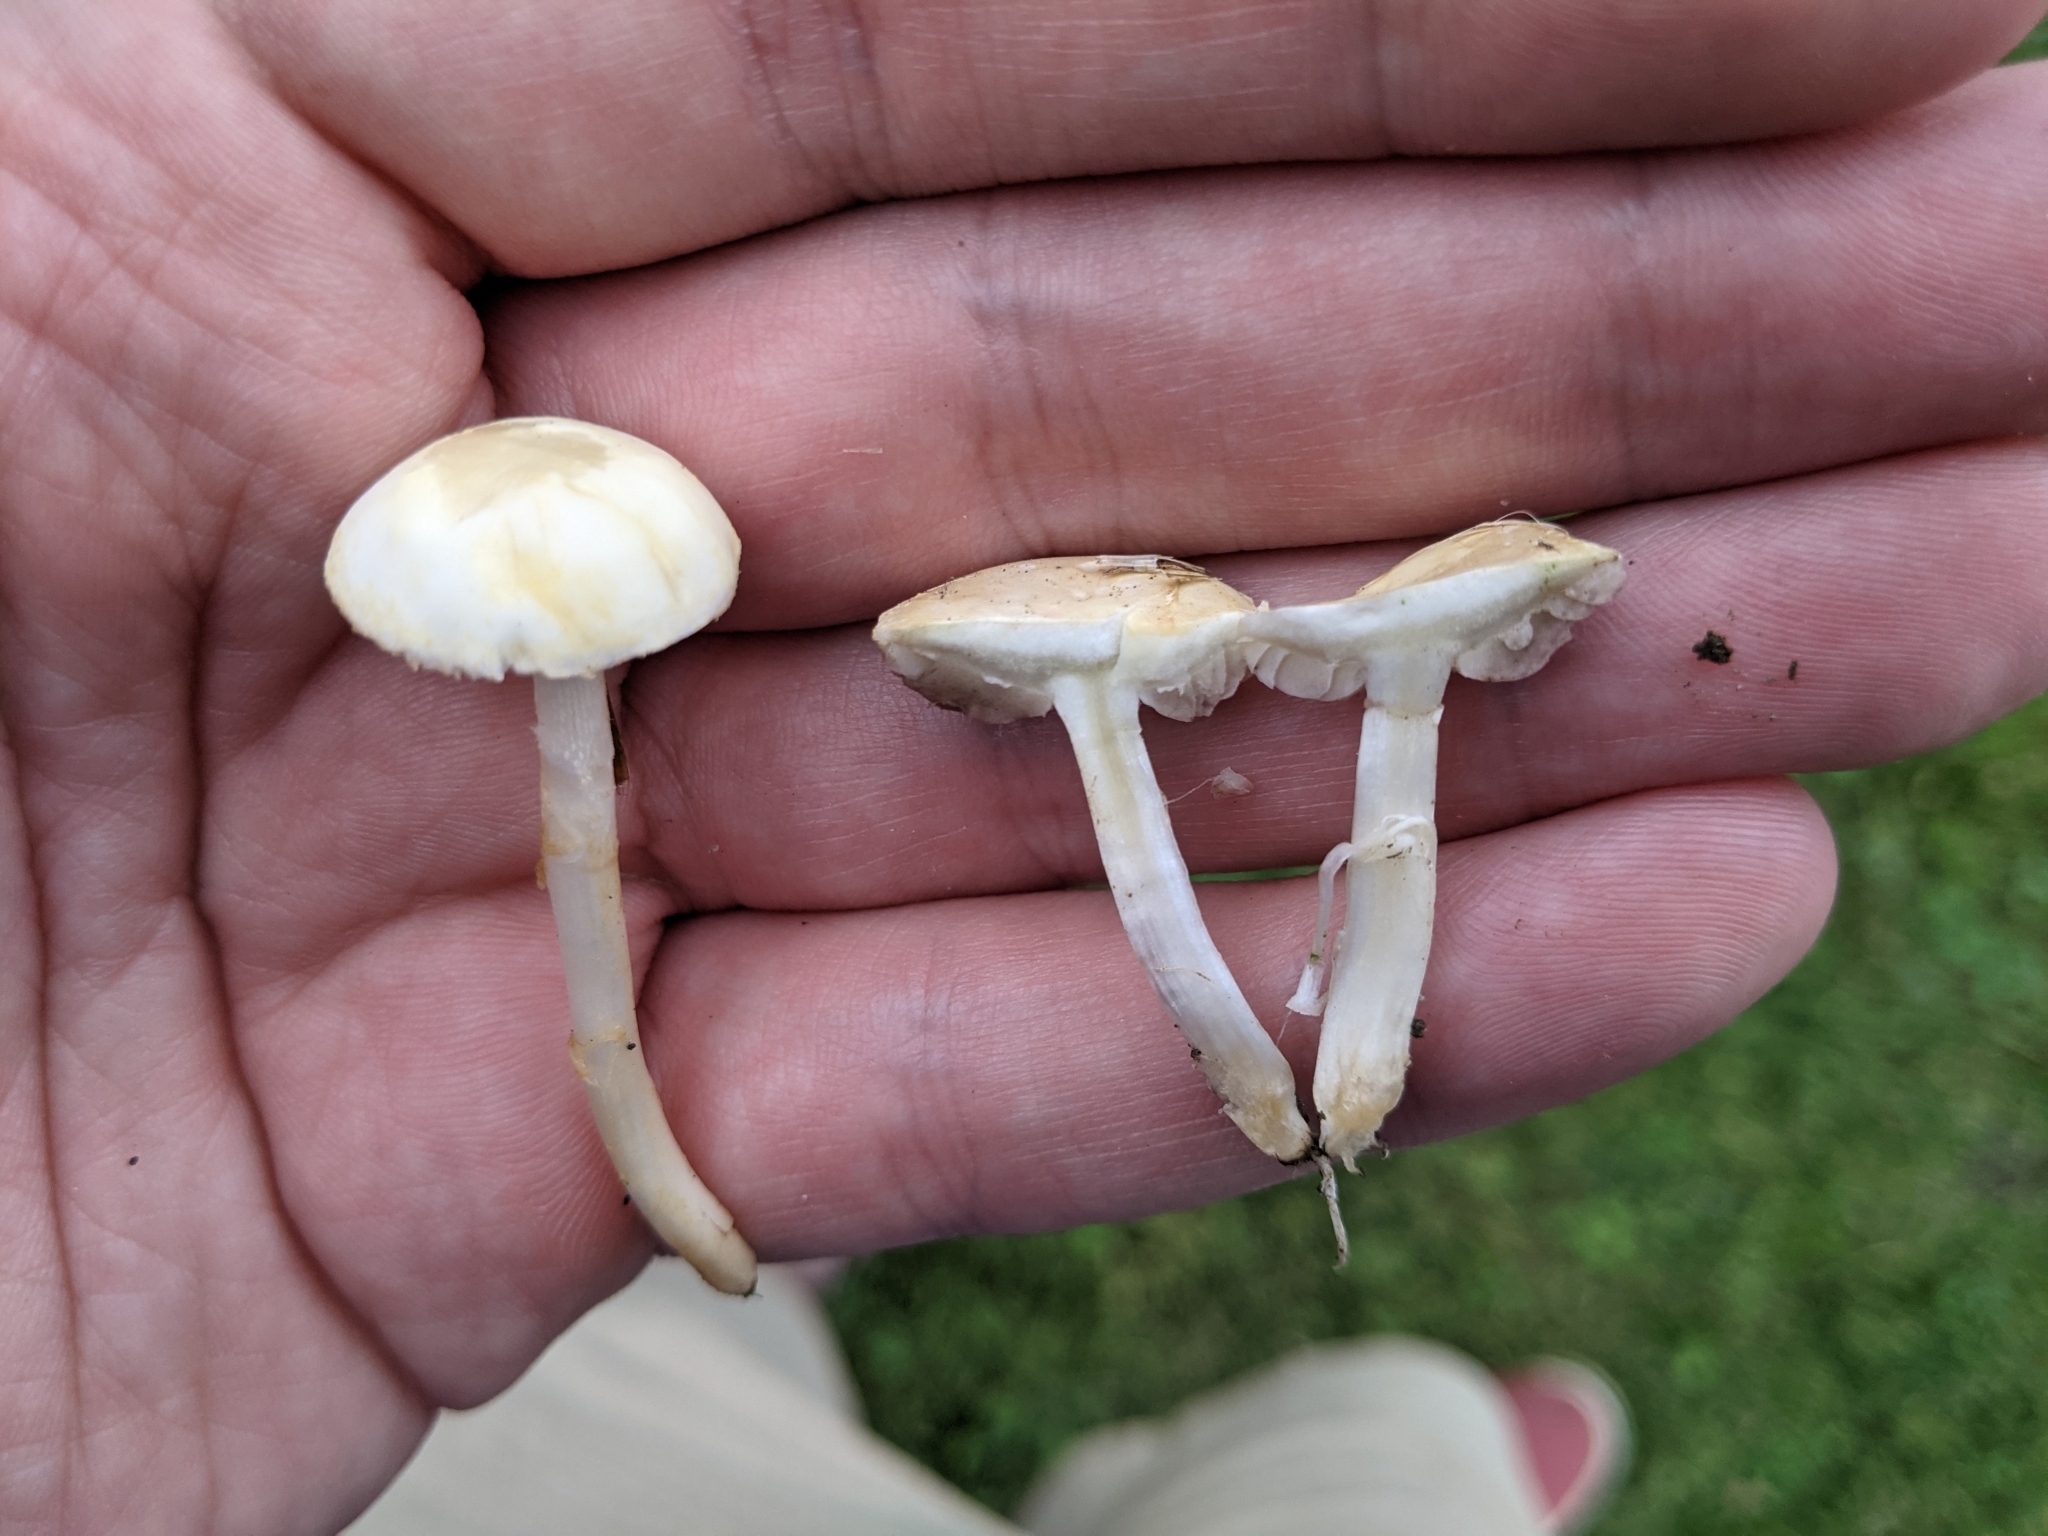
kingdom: Fungi
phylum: Basidiomycota
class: Agaricomycetes
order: Agaricales
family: Strophariaceae
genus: Agrocybe
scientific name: Agrocybe pediades
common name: Common fieldcap
